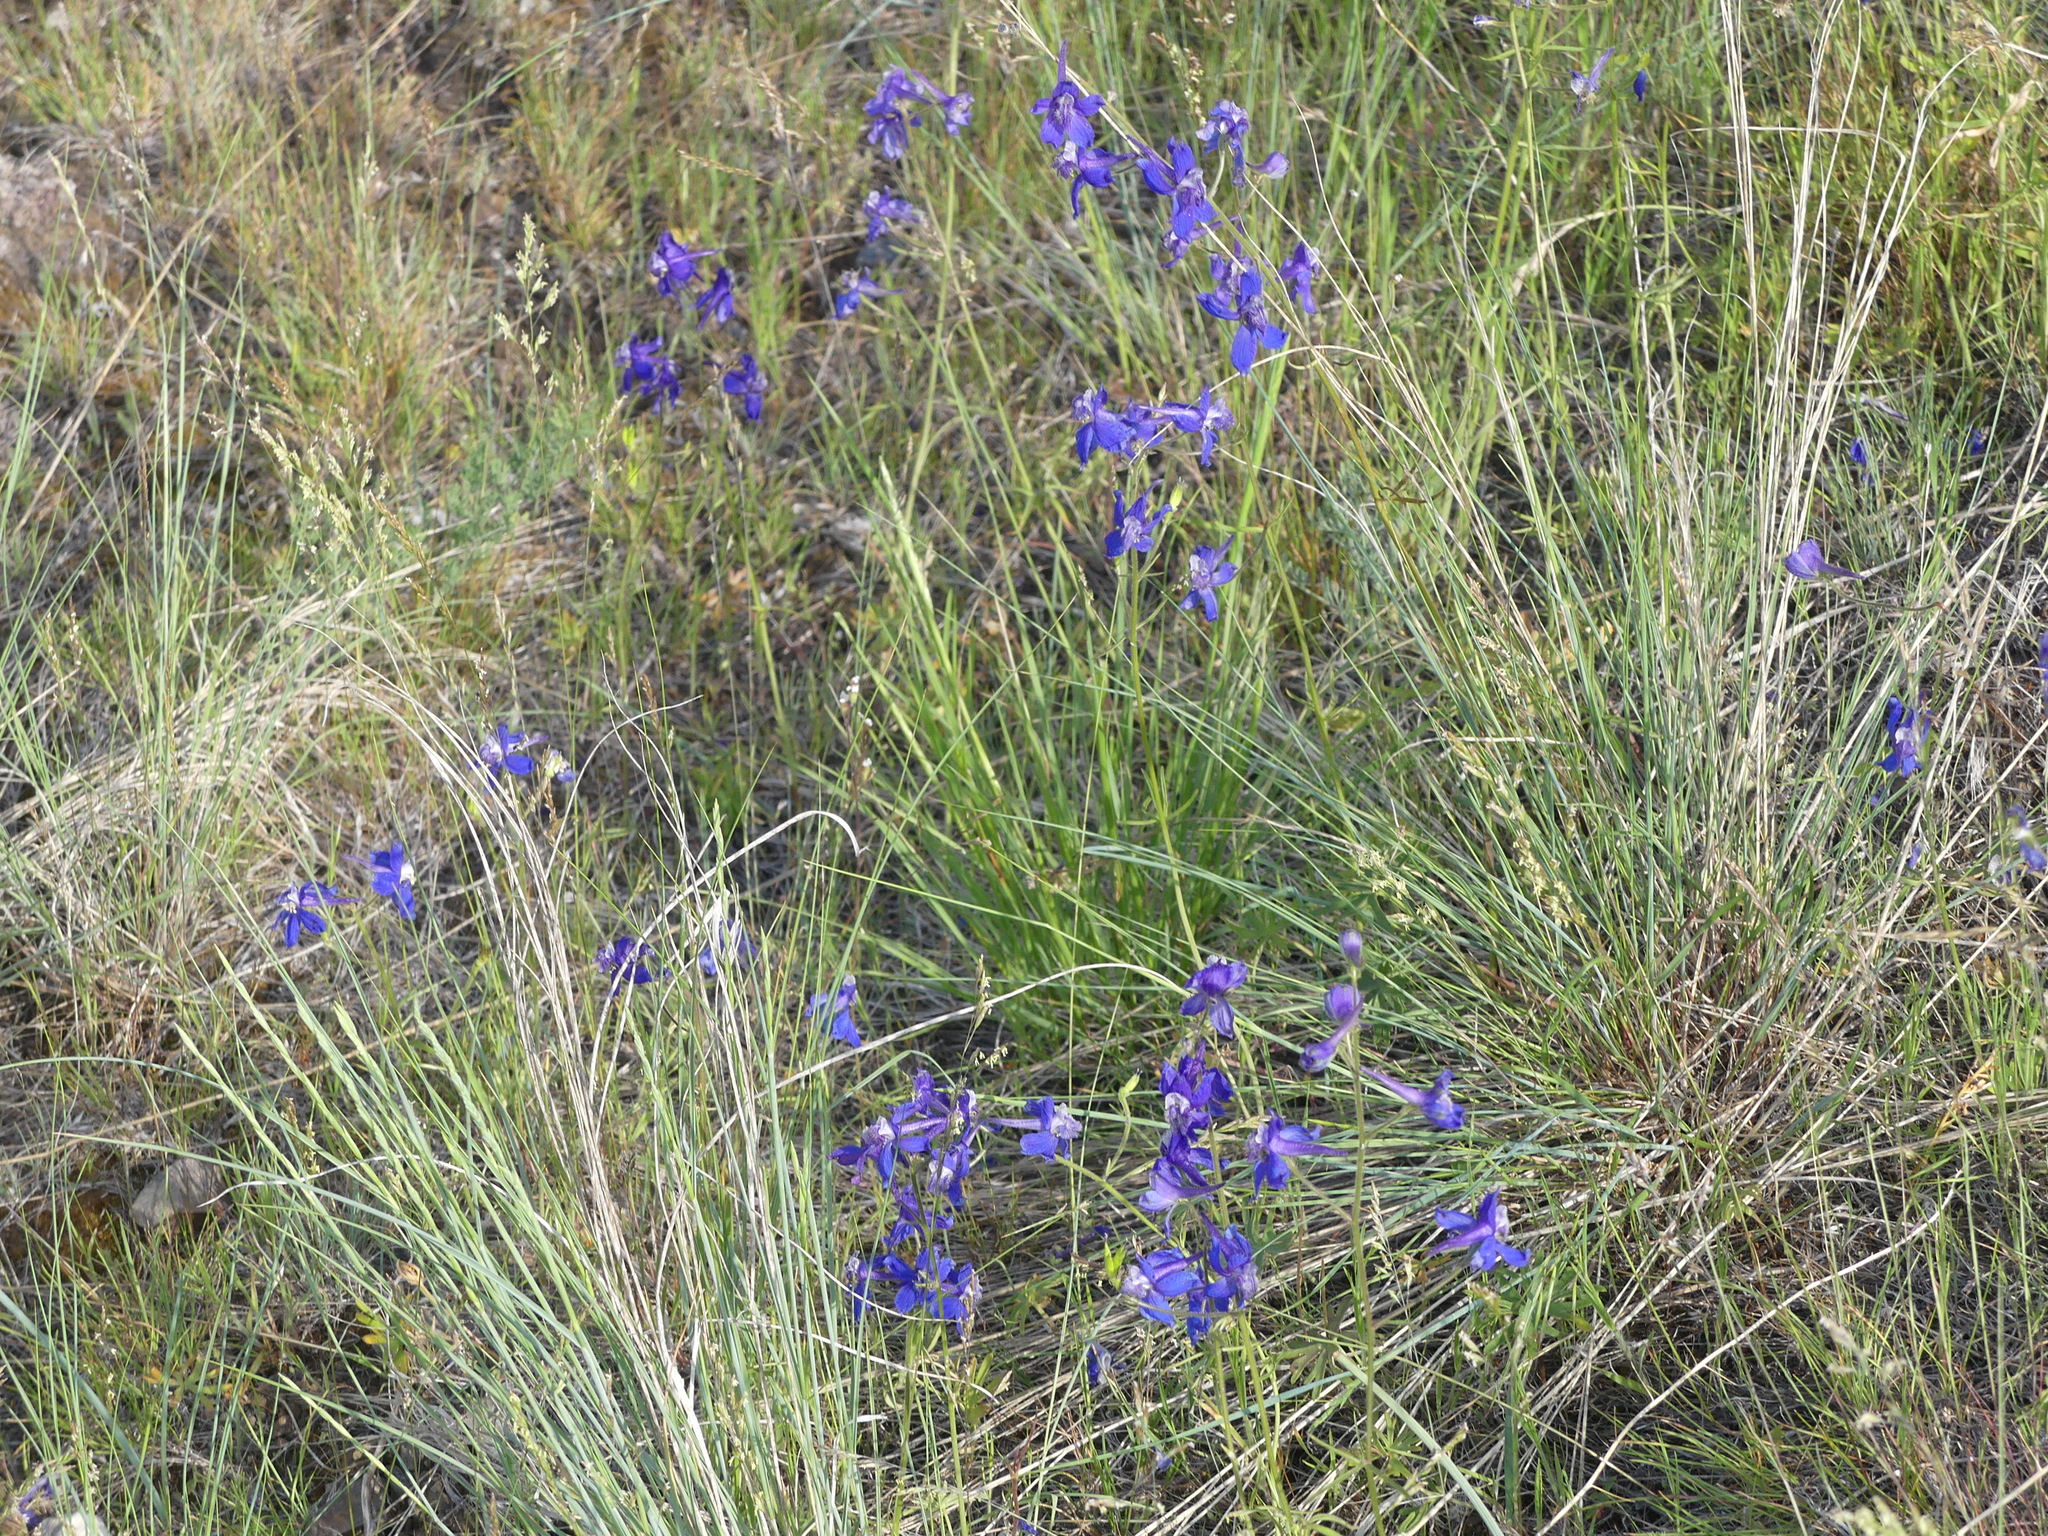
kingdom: Plantae
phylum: Tracheophyta
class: Magnoliopsida
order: Ranunculales
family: Ranunculaceae
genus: Delphinium
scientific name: Delphinium nuttallianum
